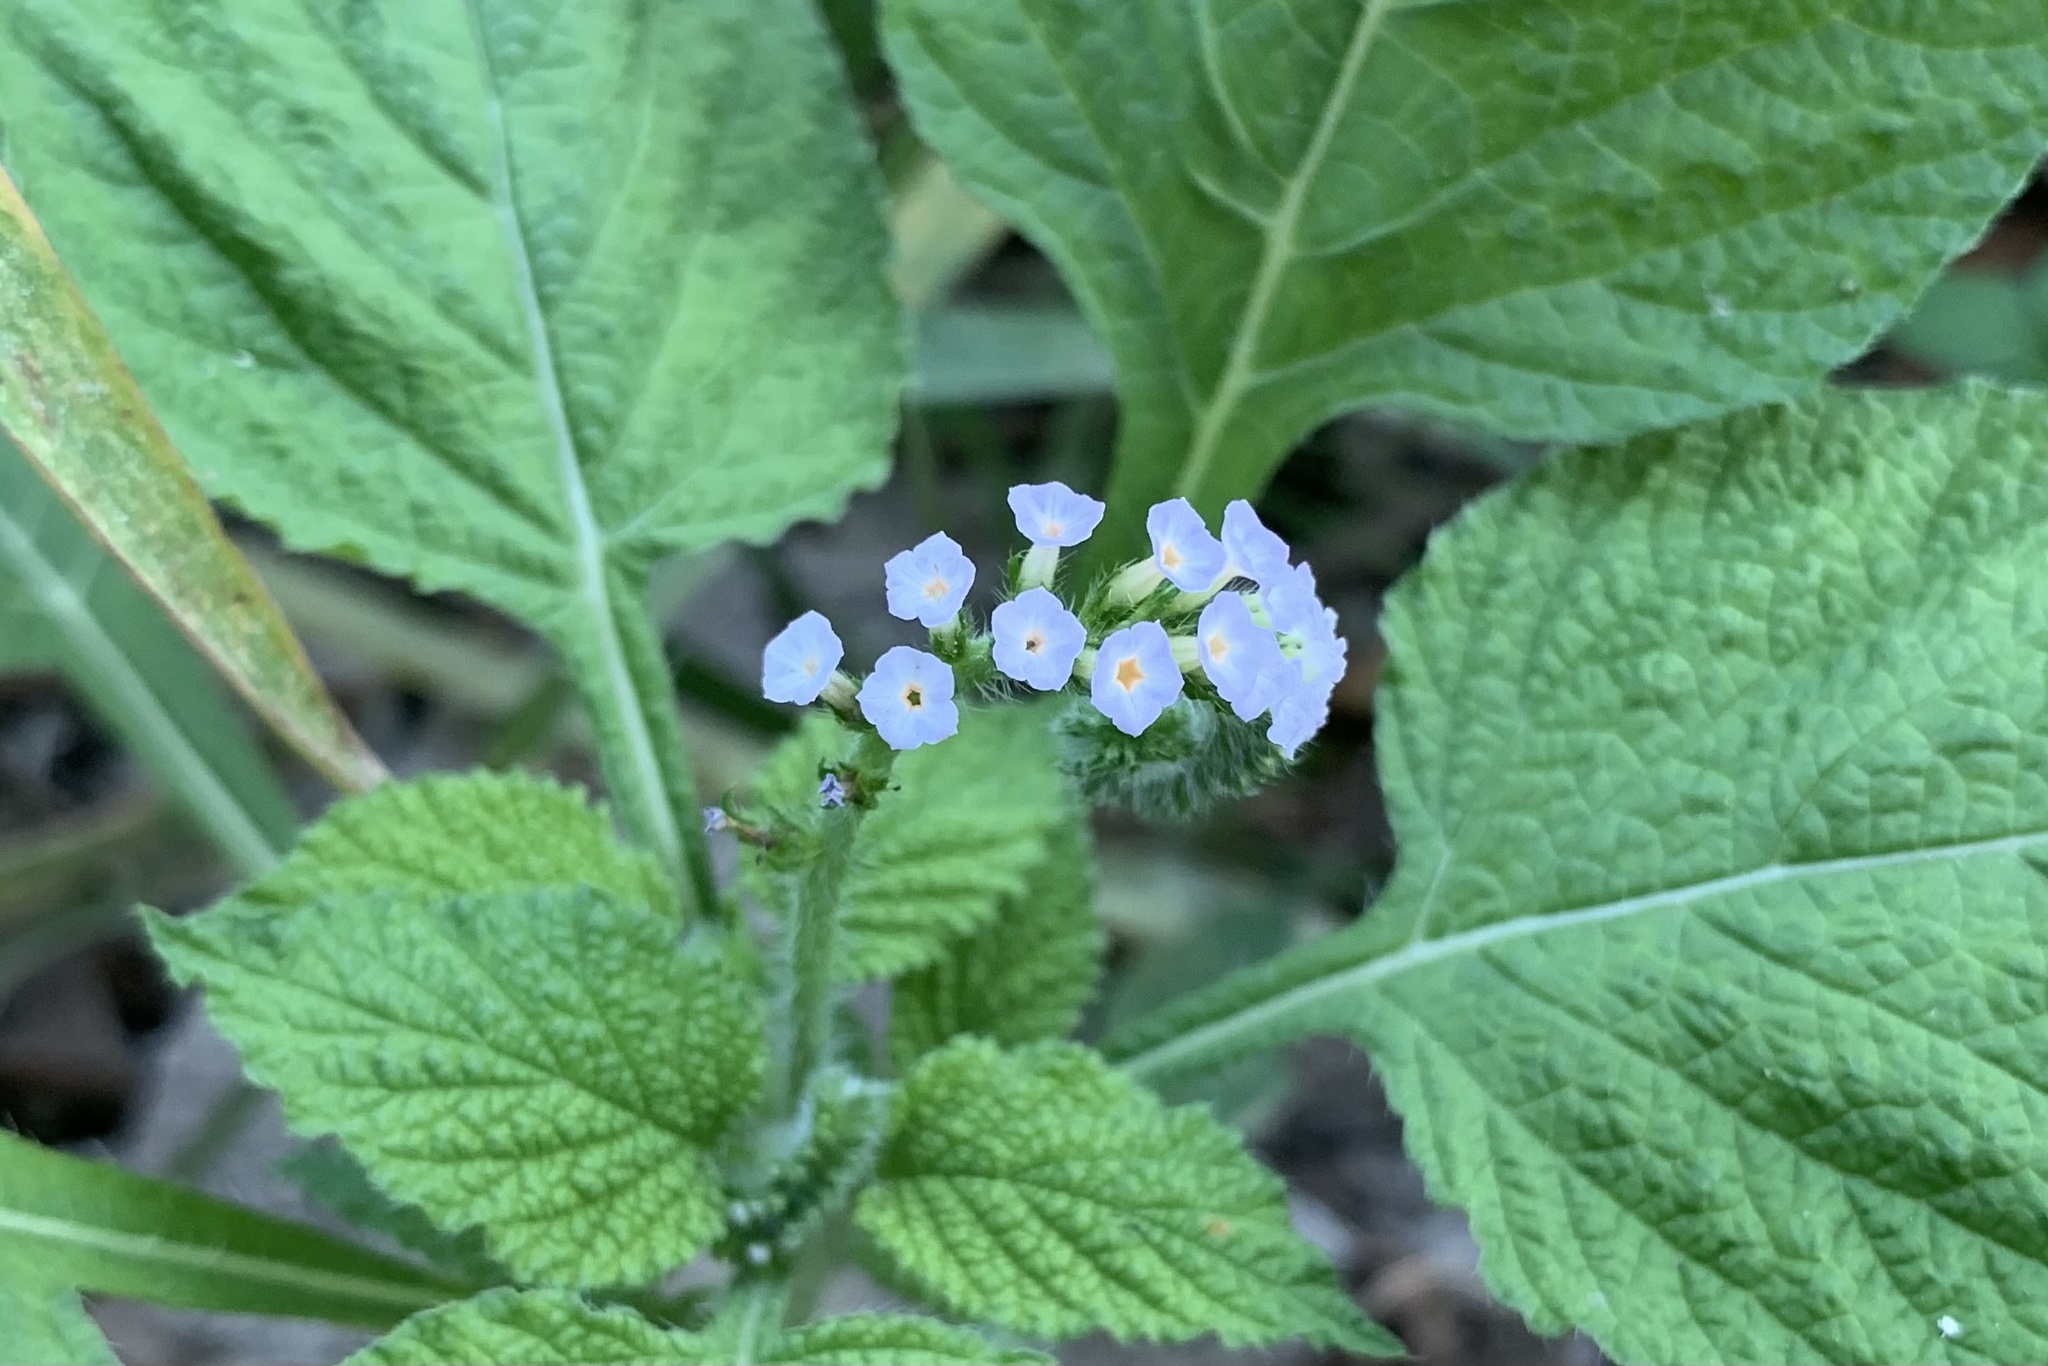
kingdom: Plantae
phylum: Tracheophyta
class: Magnoliopsida
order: Boraginales
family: Heliotropiaceae
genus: Heliotropium
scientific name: Heliotropium indicum
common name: Indian heliotrope
